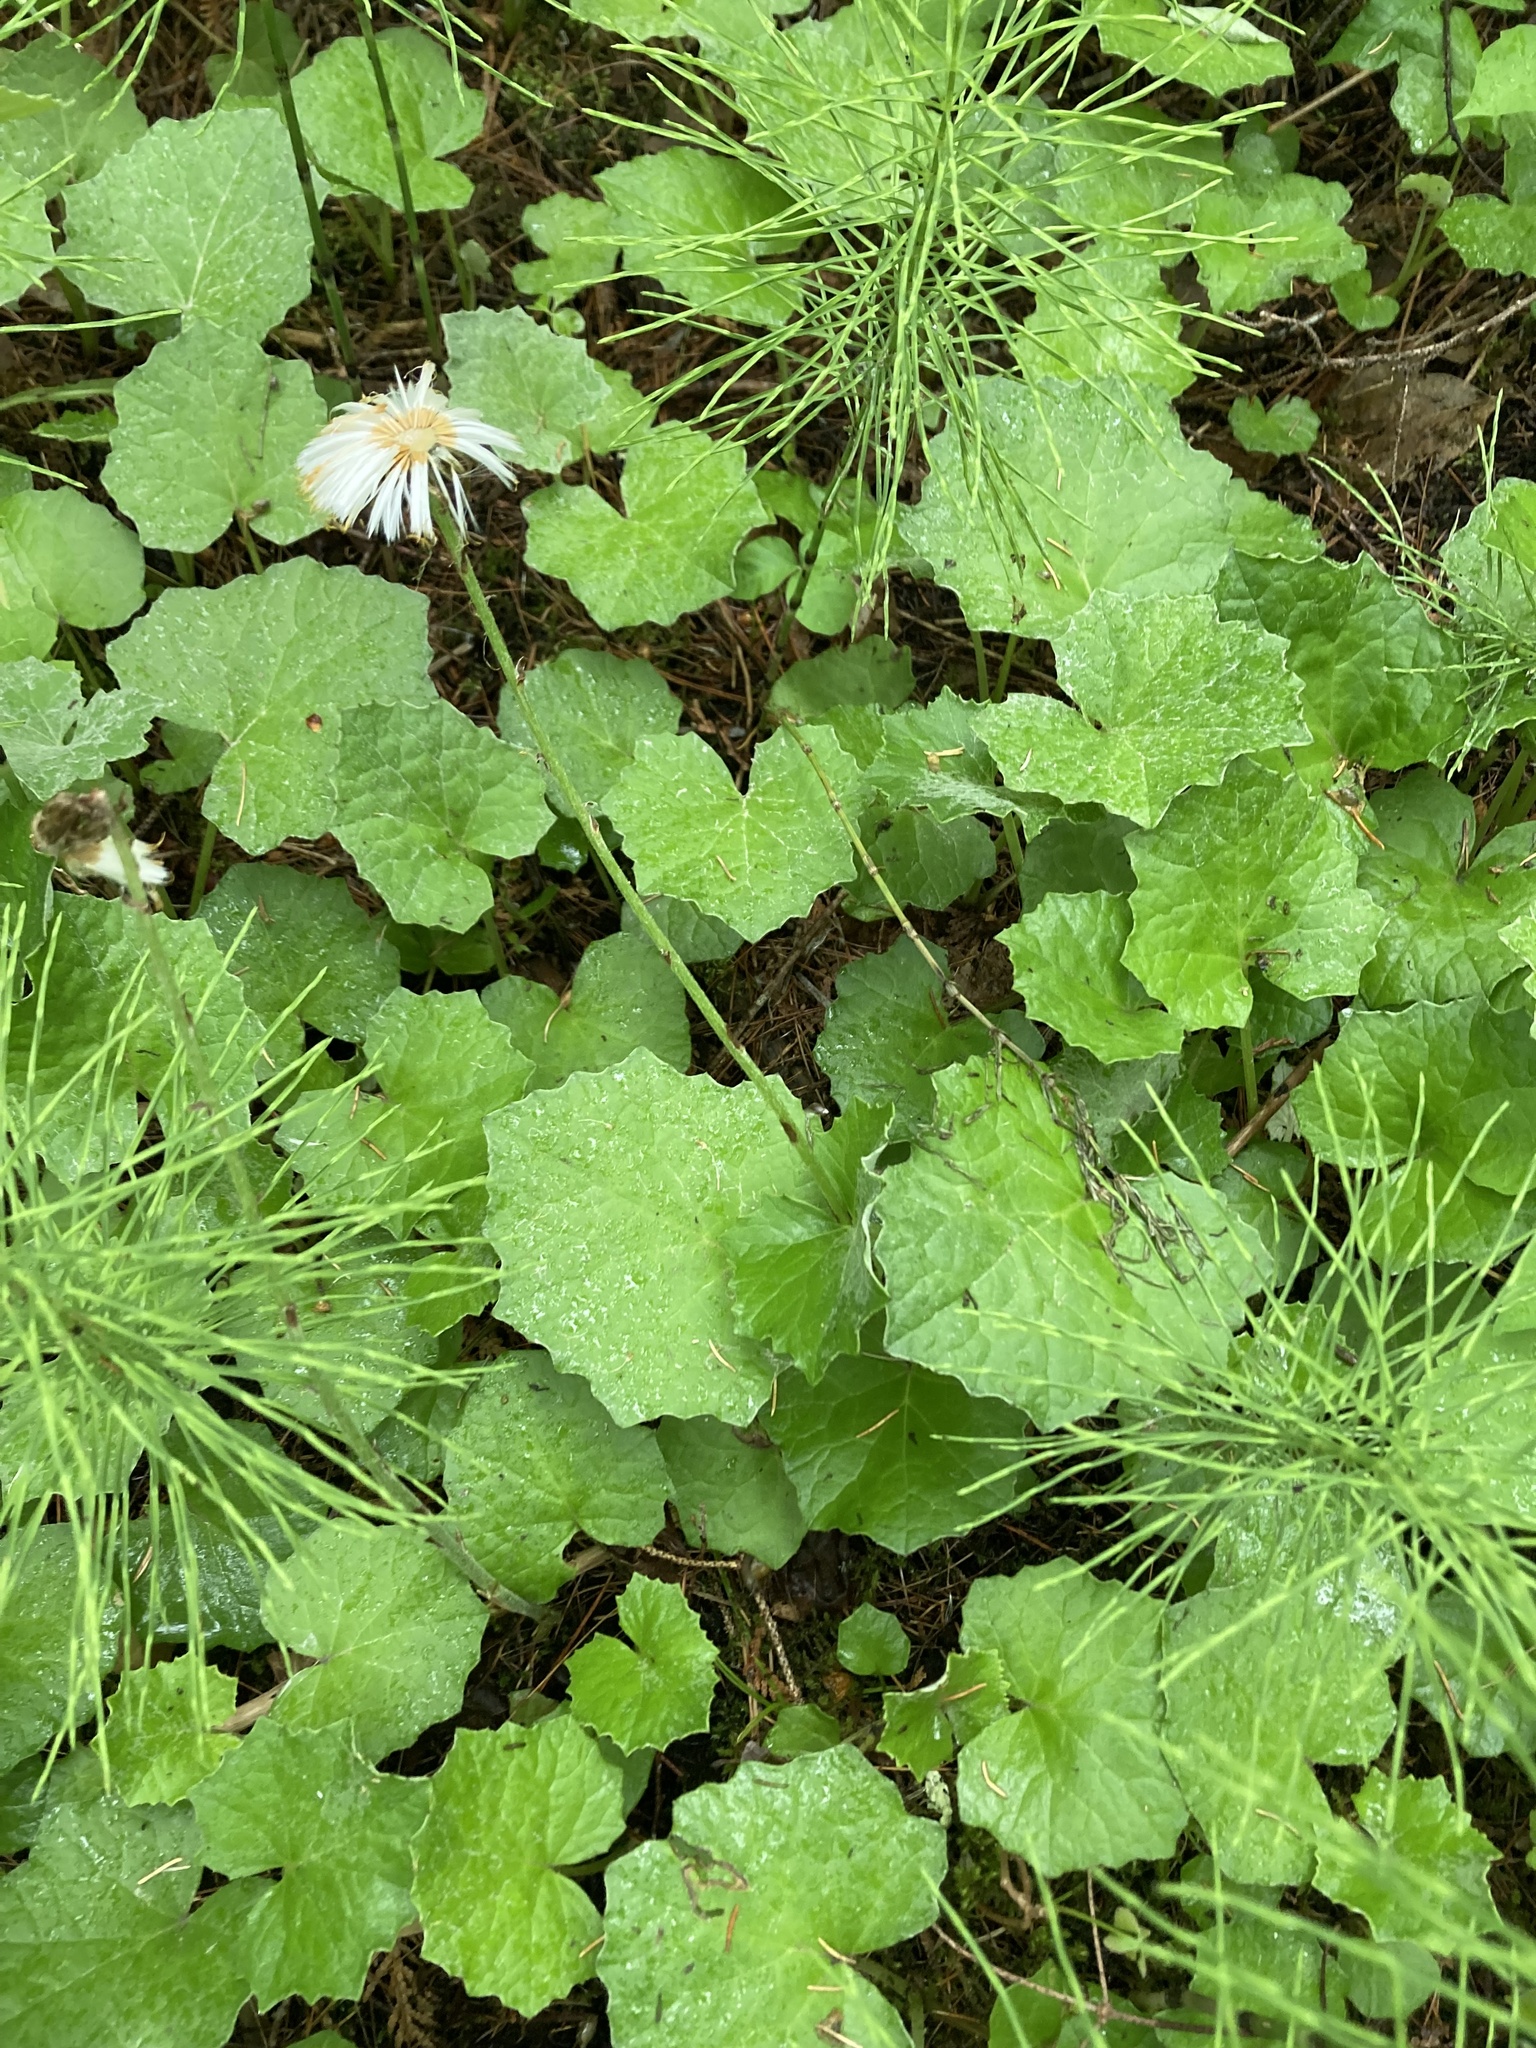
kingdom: Plantae
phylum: Tracheophyta
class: Magnoliopsida
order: Asterales
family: Asteraceae
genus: Tussilago
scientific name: Tussilago farfara
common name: Coltsfoot
